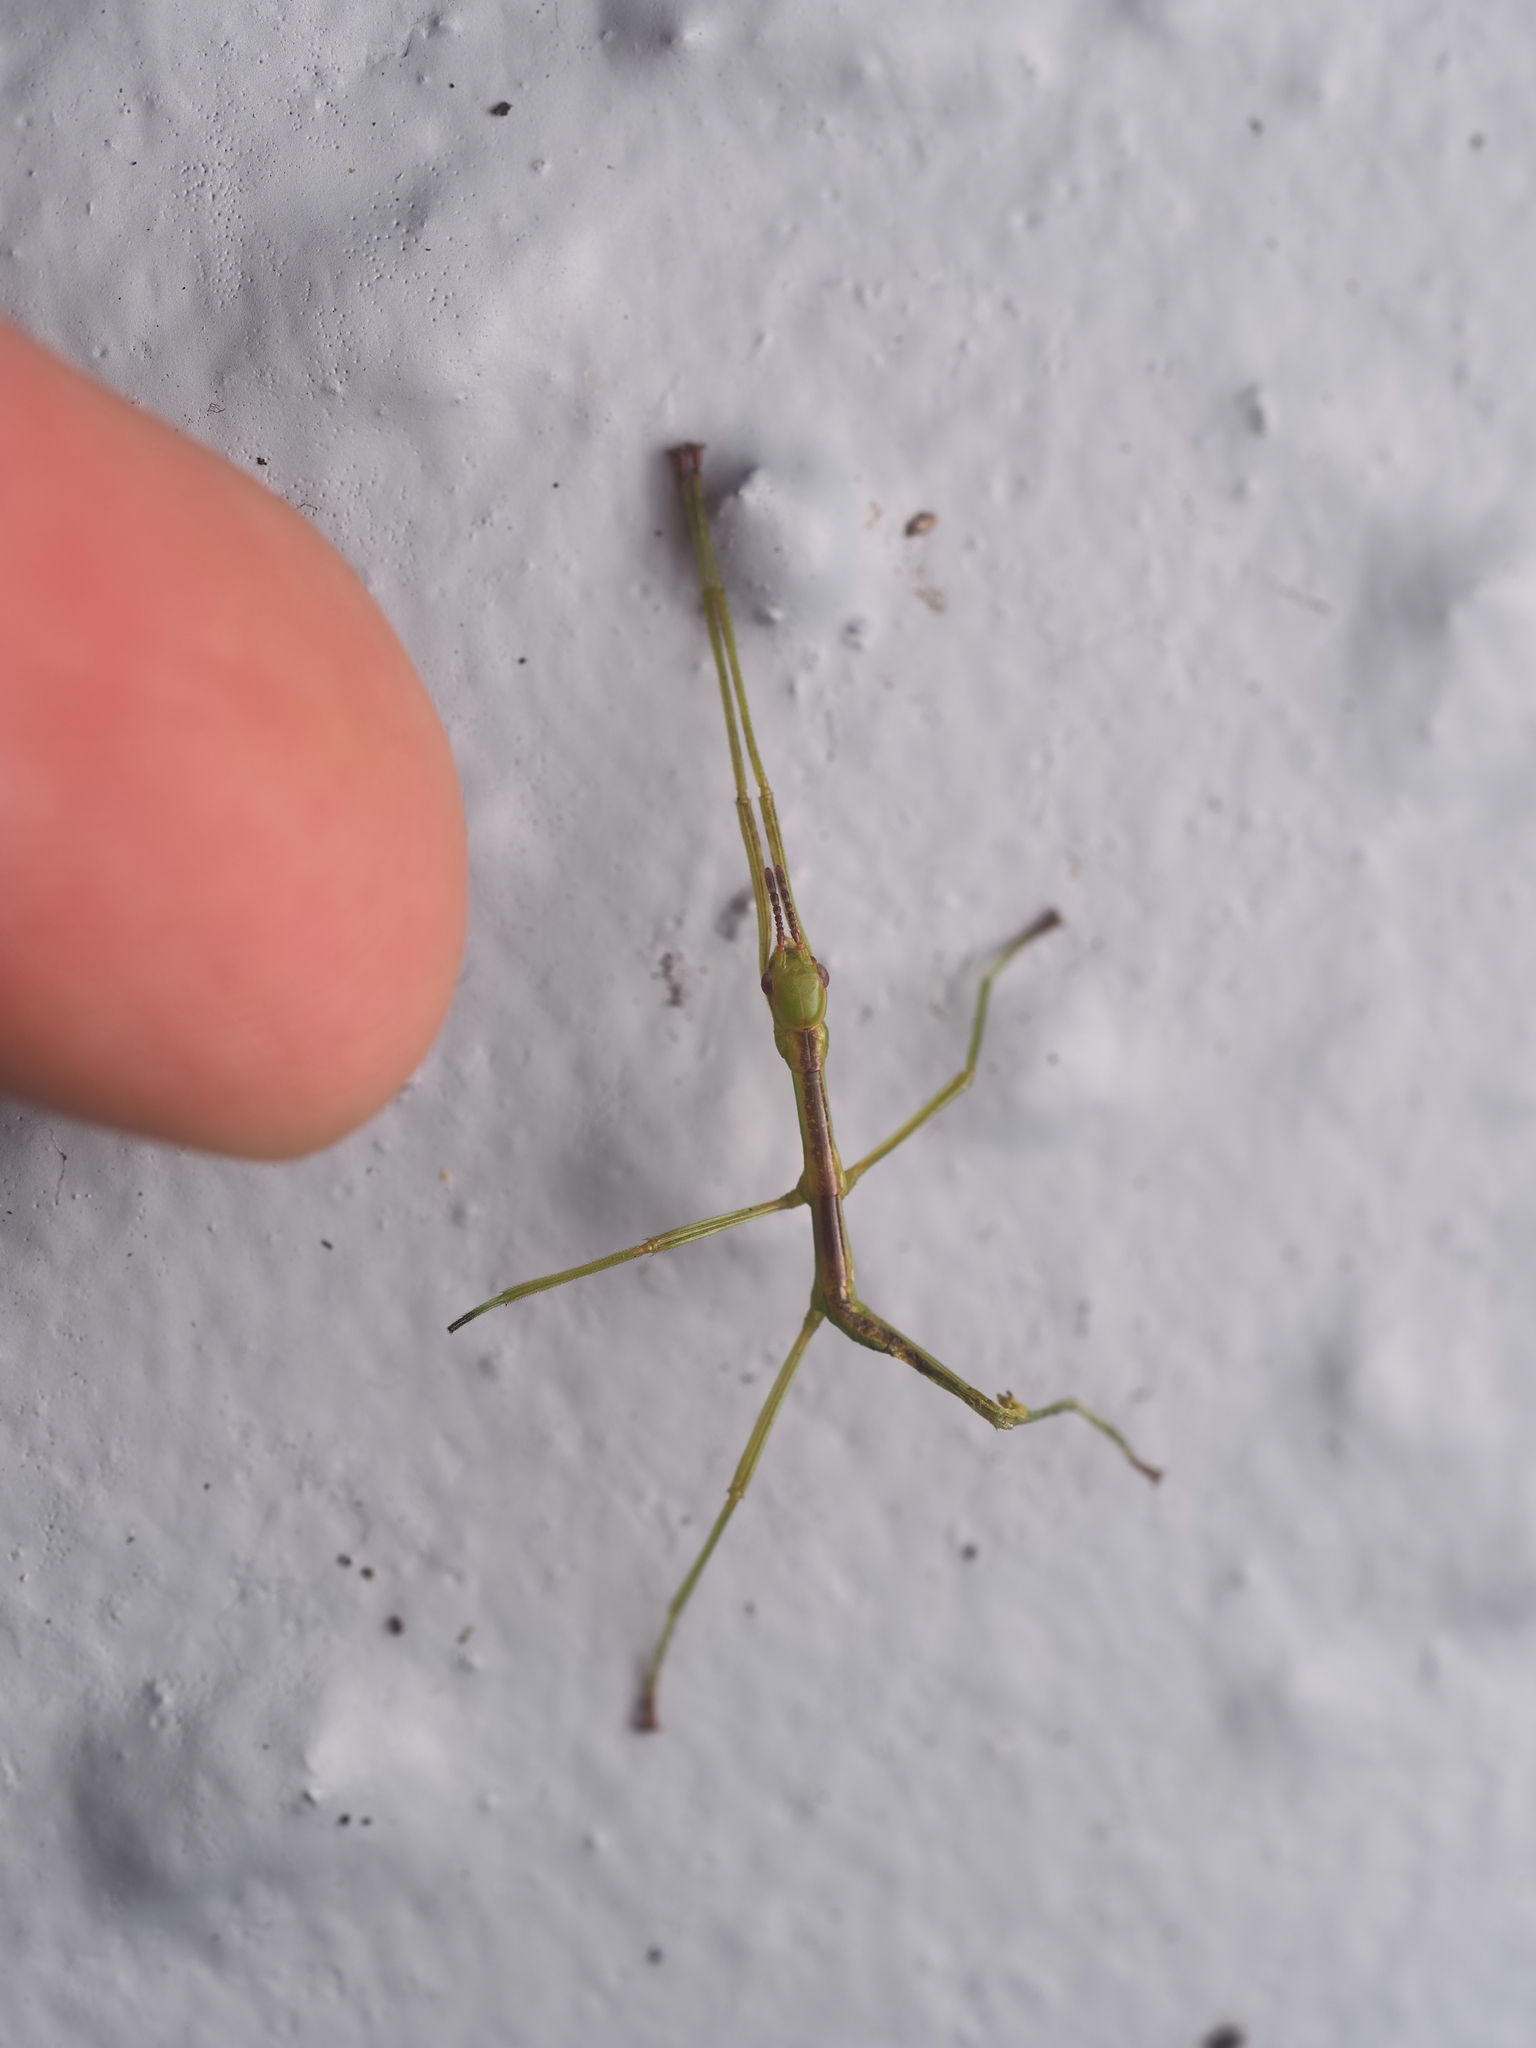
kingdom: Animalia
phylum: Arthropoda
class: Insecta
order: Phasmida
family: Phasmatidae
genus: Clitarchus
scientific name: Clitarchus hookeri
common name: Smooth stick insect
